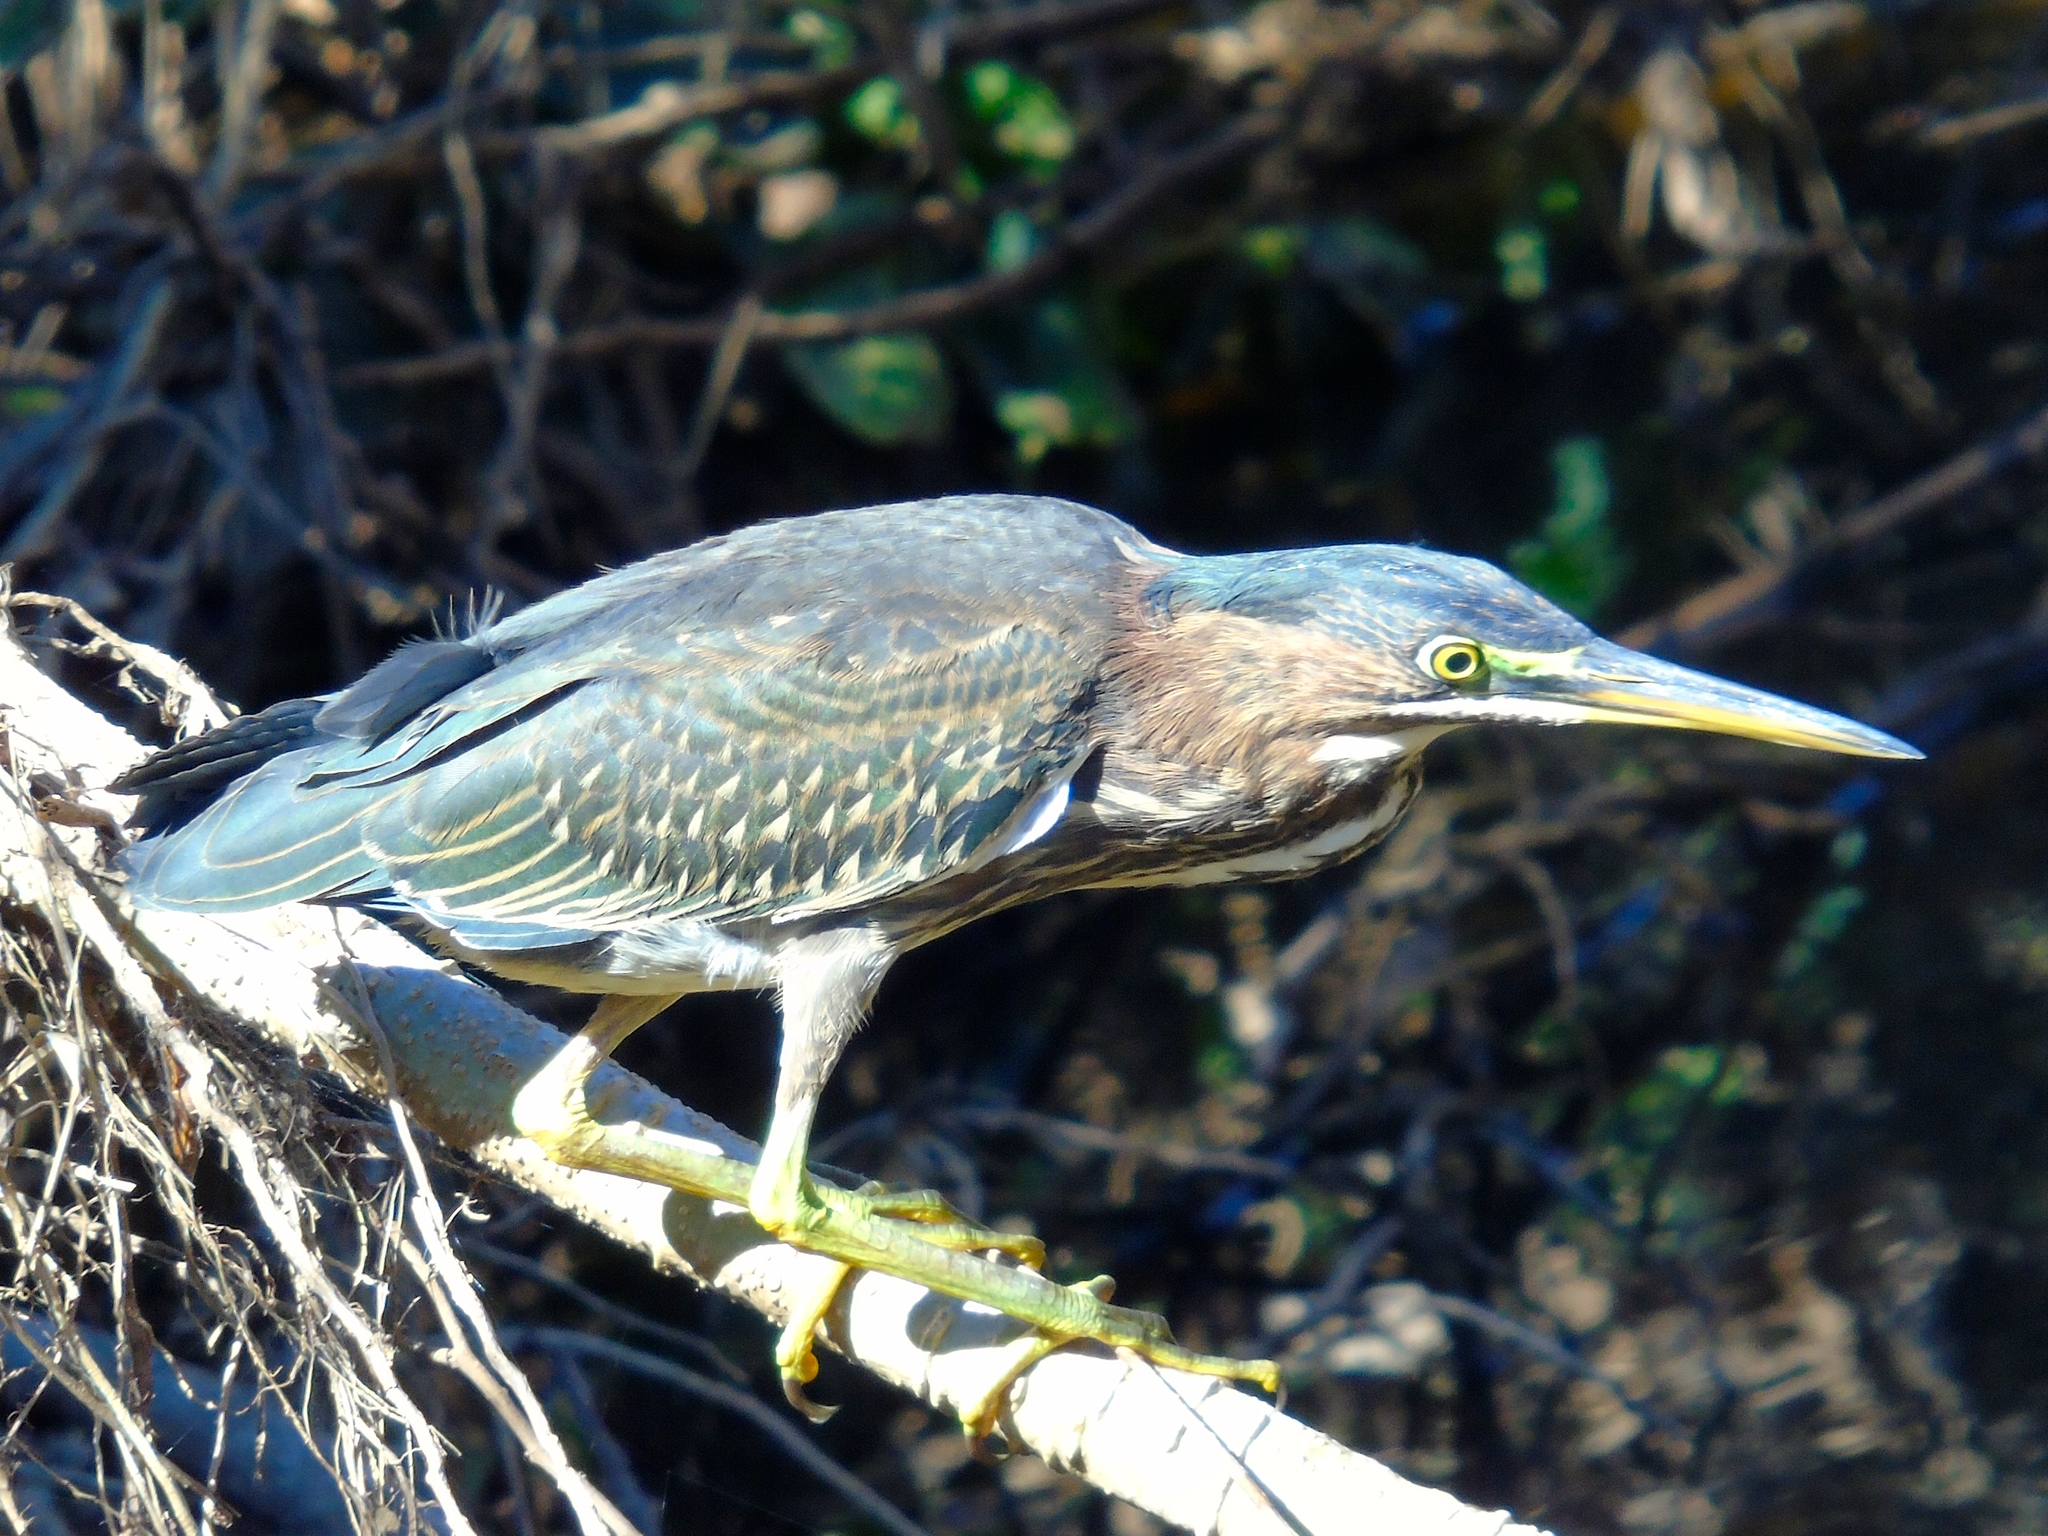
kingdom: Animalia
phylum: Chordata
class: Aves
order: Pelecaniformes
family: Ardeidae
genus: Butorides
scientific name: Butorides virescens
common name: Green heron
